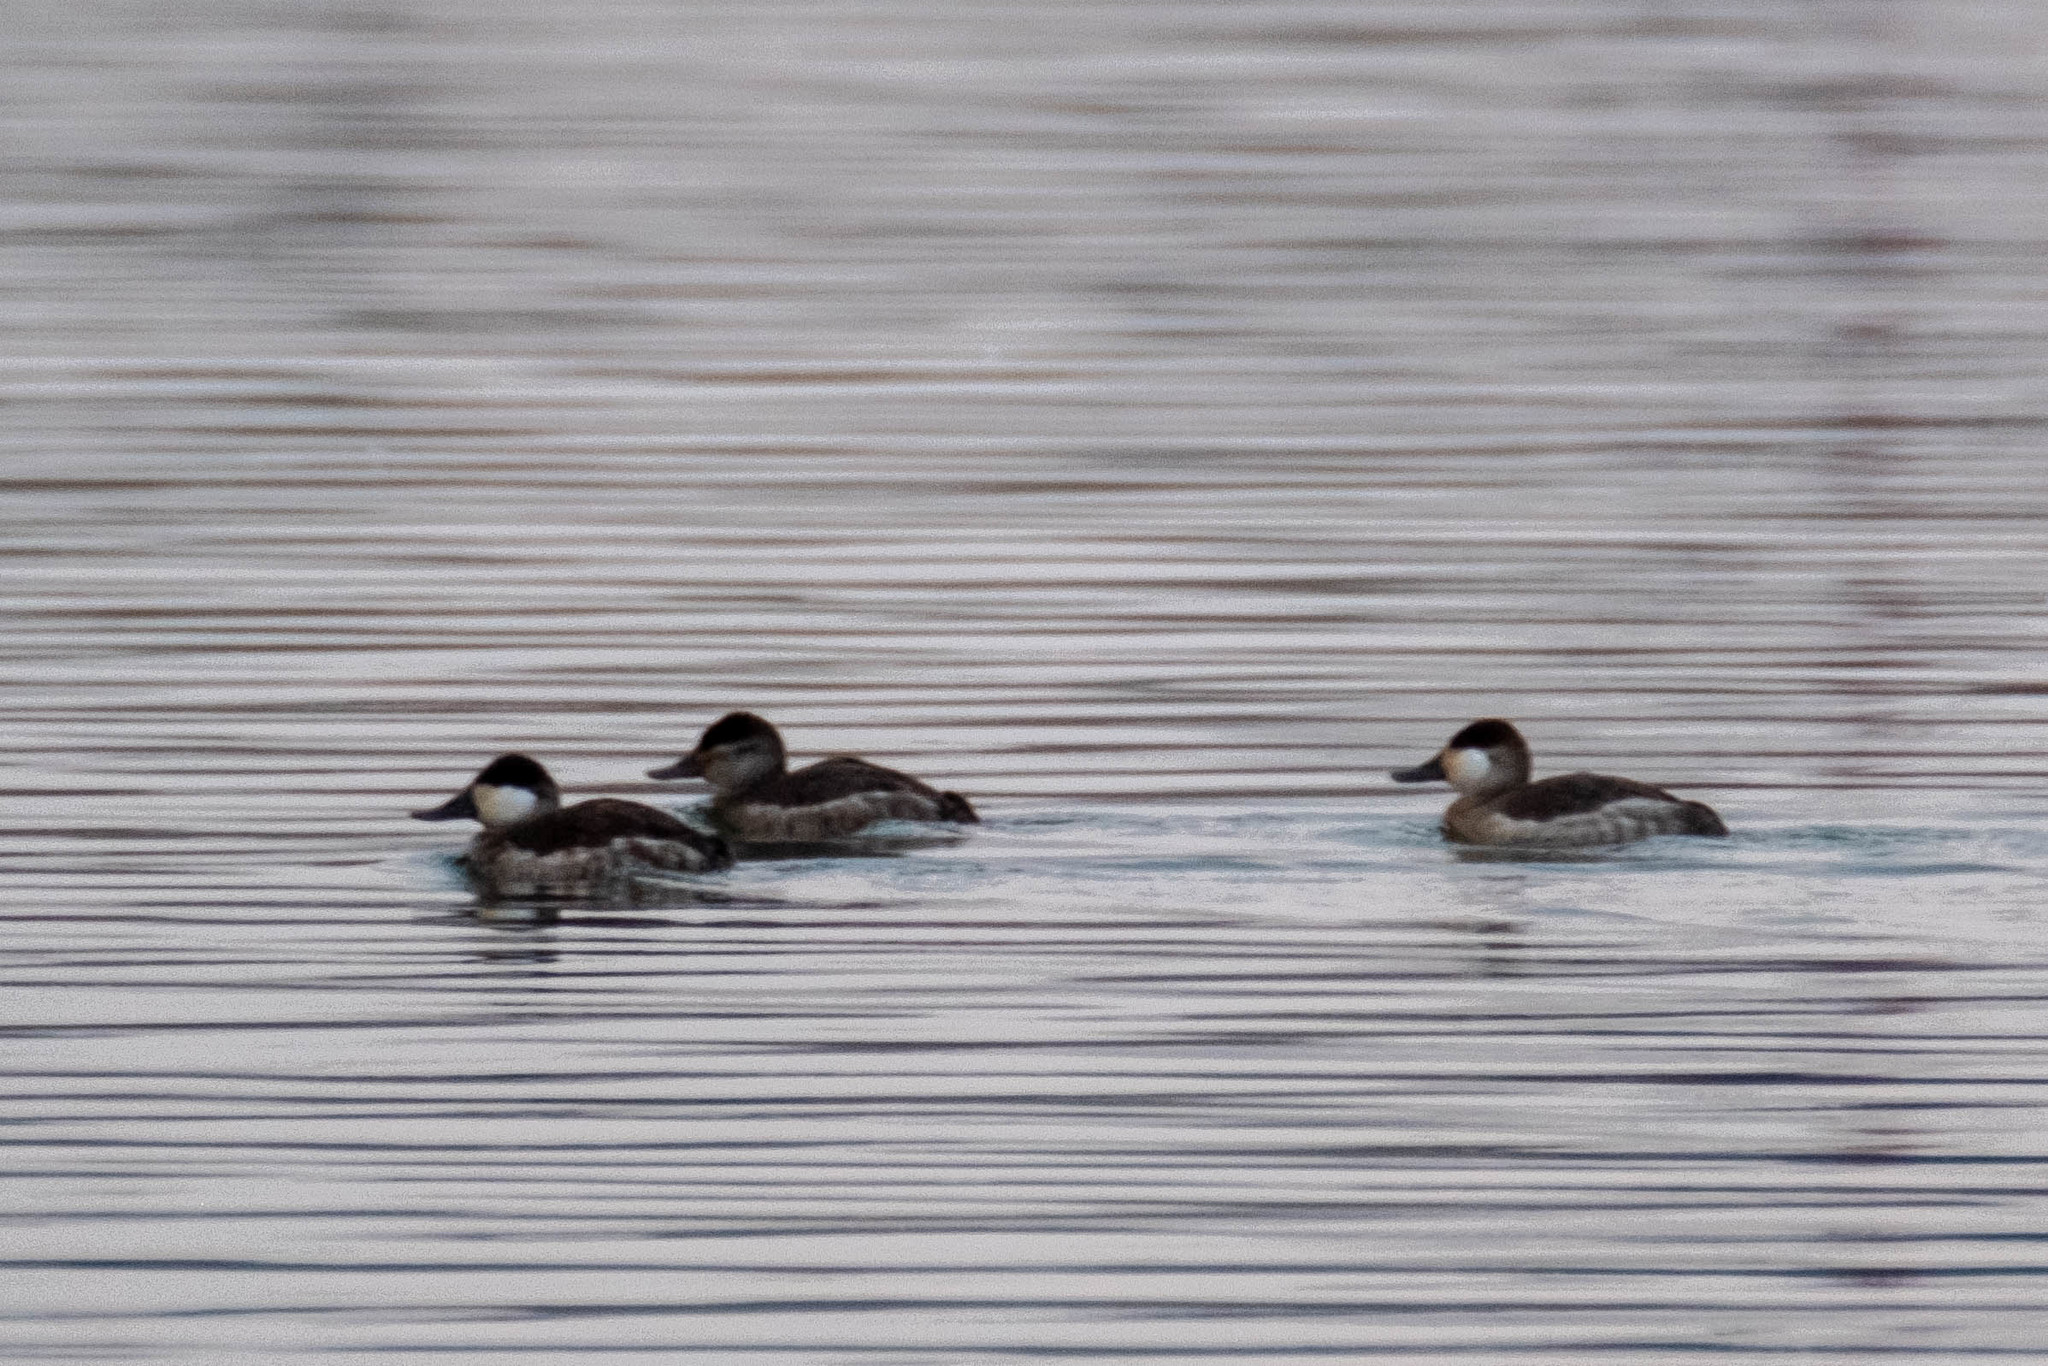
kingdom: Animalia
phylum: Chordata
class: Aves
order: Anseriformes
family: Anatidae
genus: Oxyura
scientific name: Oxyura jamaicensis
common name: Ruddy duck
